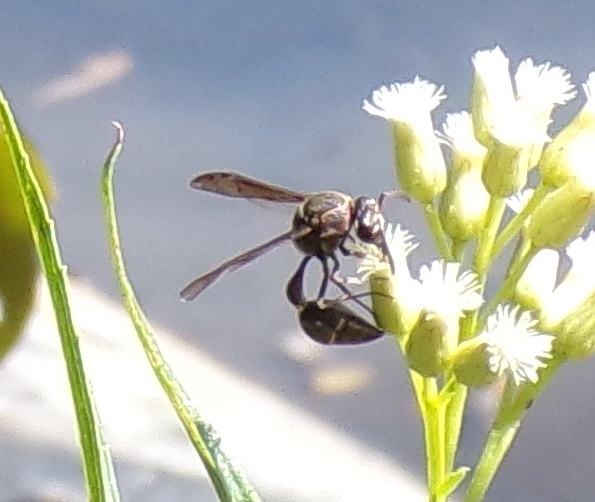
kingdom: Animalia
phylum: Arthropoda
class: Insecta
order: Hymenoptera
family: Eumenidae
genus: Minixi
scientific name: Minixi mexicanum
